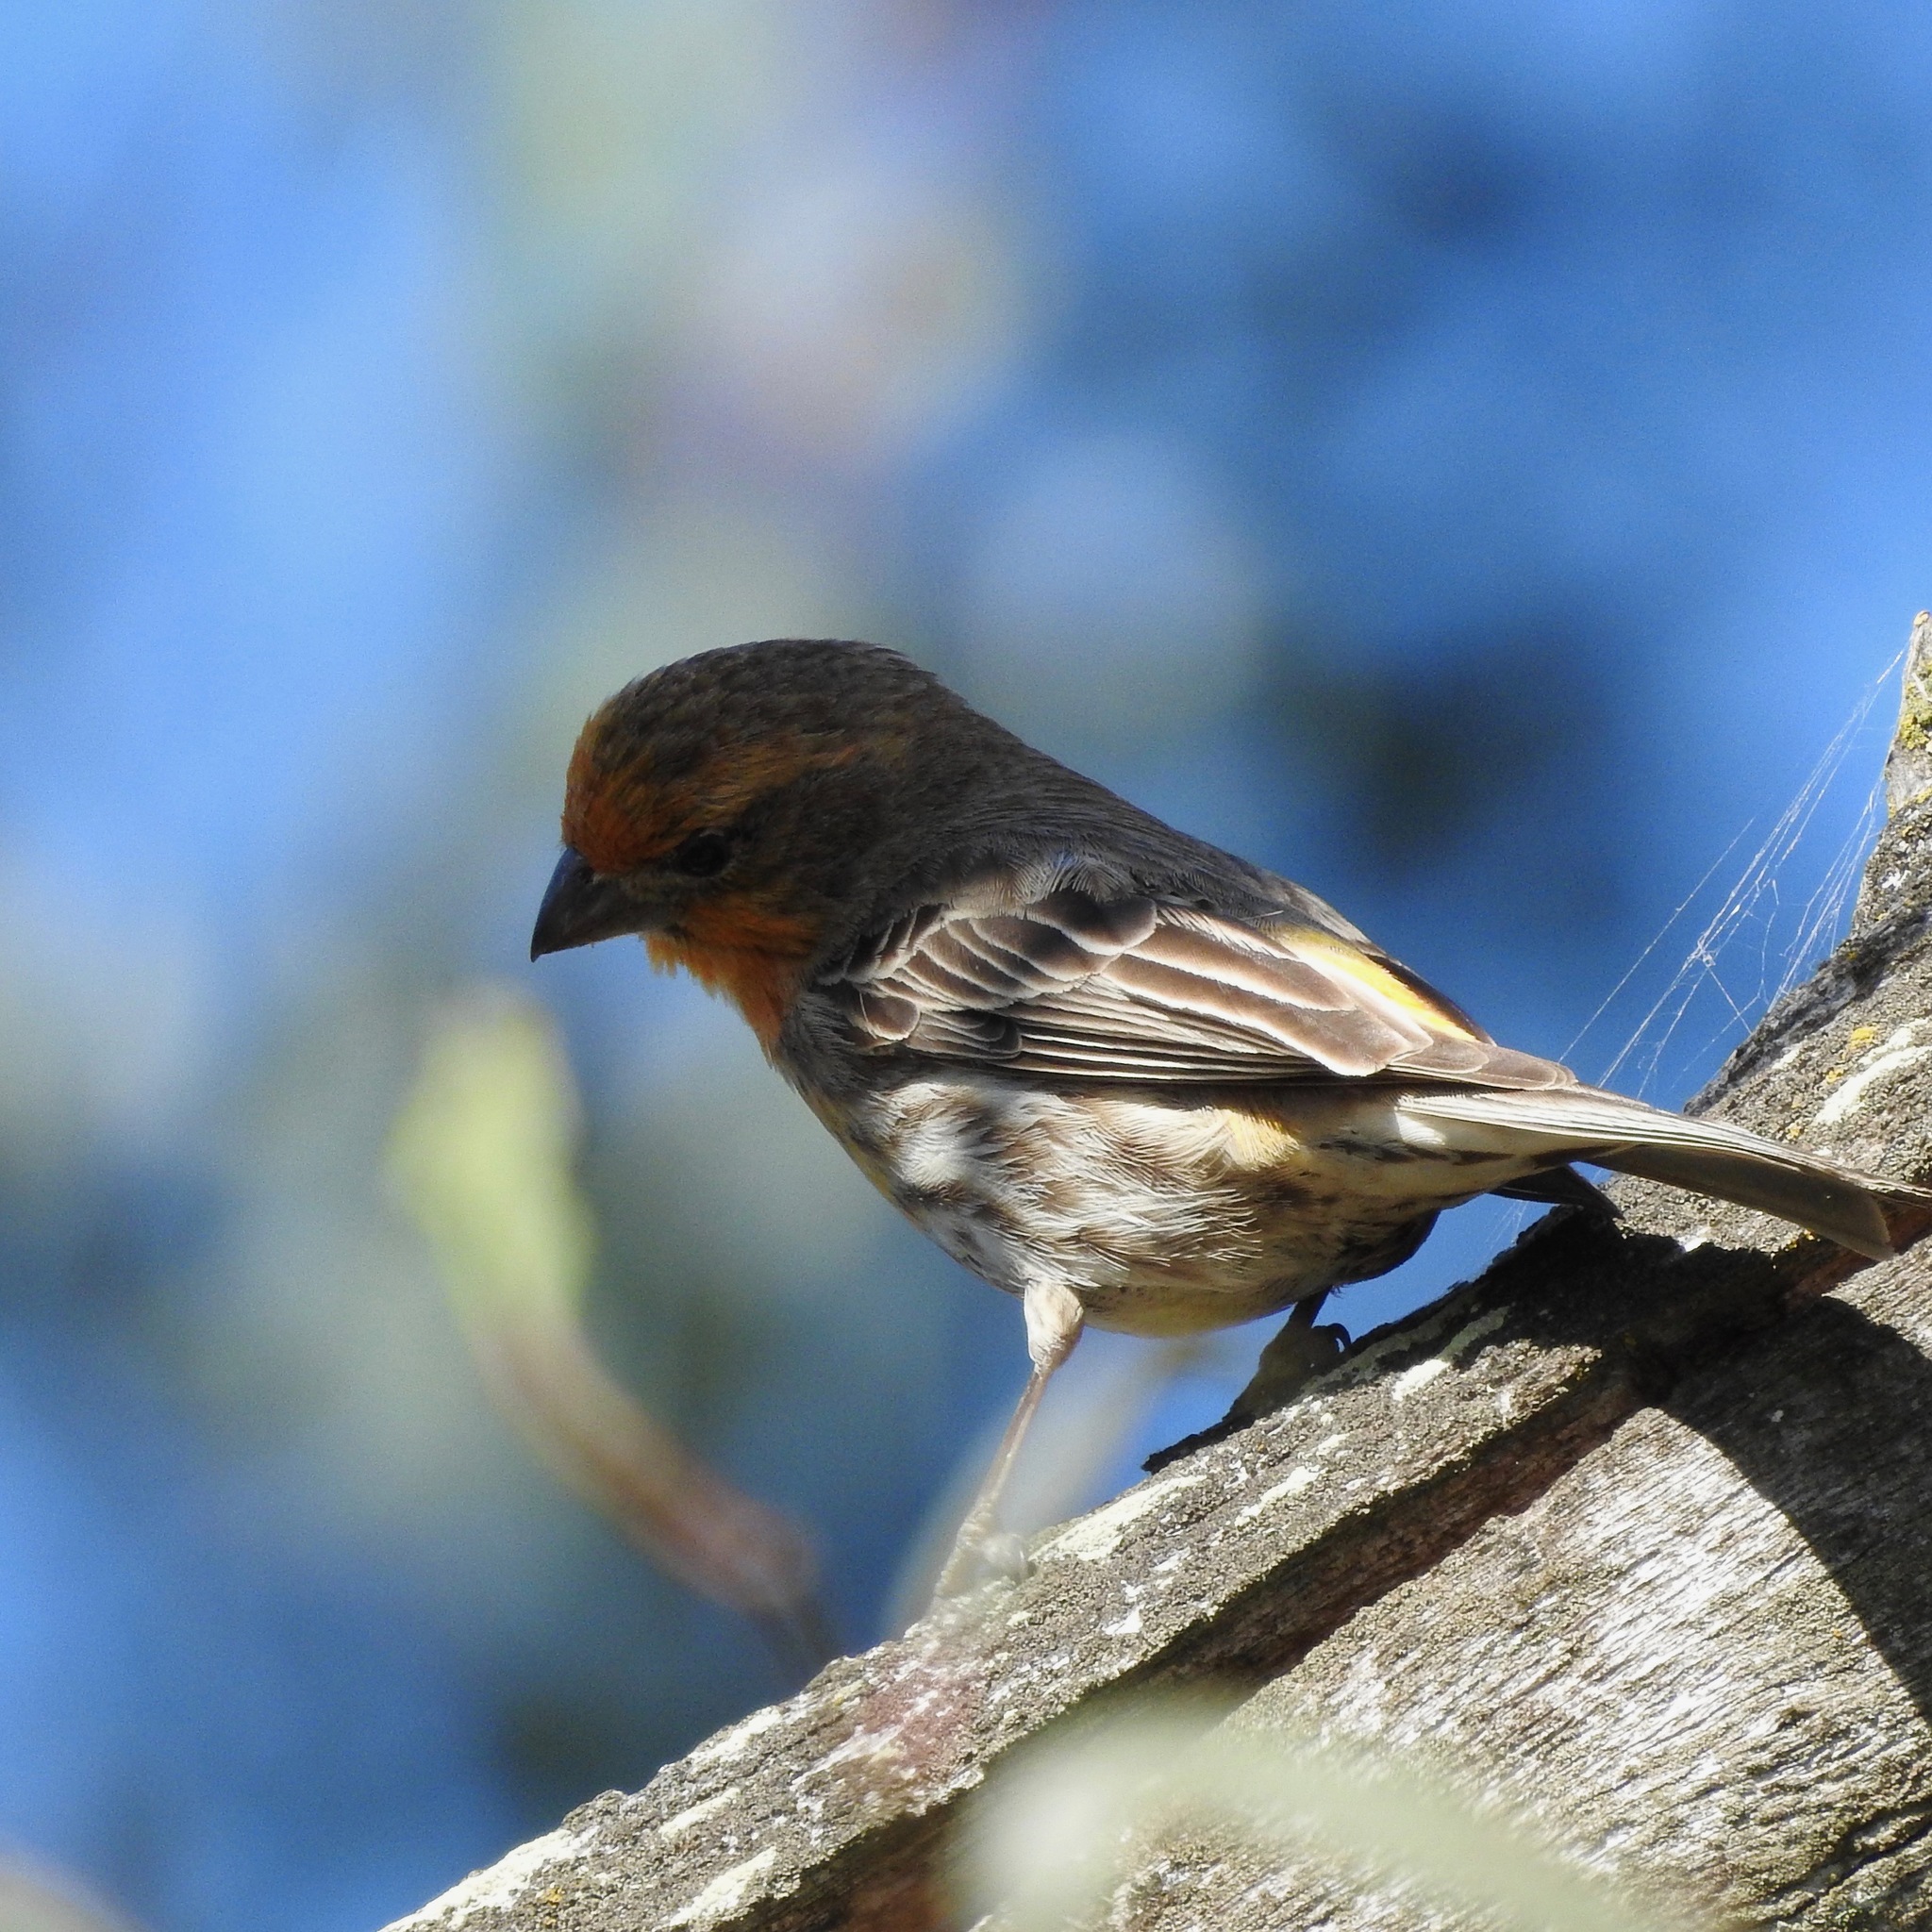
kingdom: Animalia
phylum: Chordata
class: Aves
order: Passeriformes
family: Fringillidae
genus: Haemorhous
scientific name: Haemorhous mexicanus
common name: House finch
